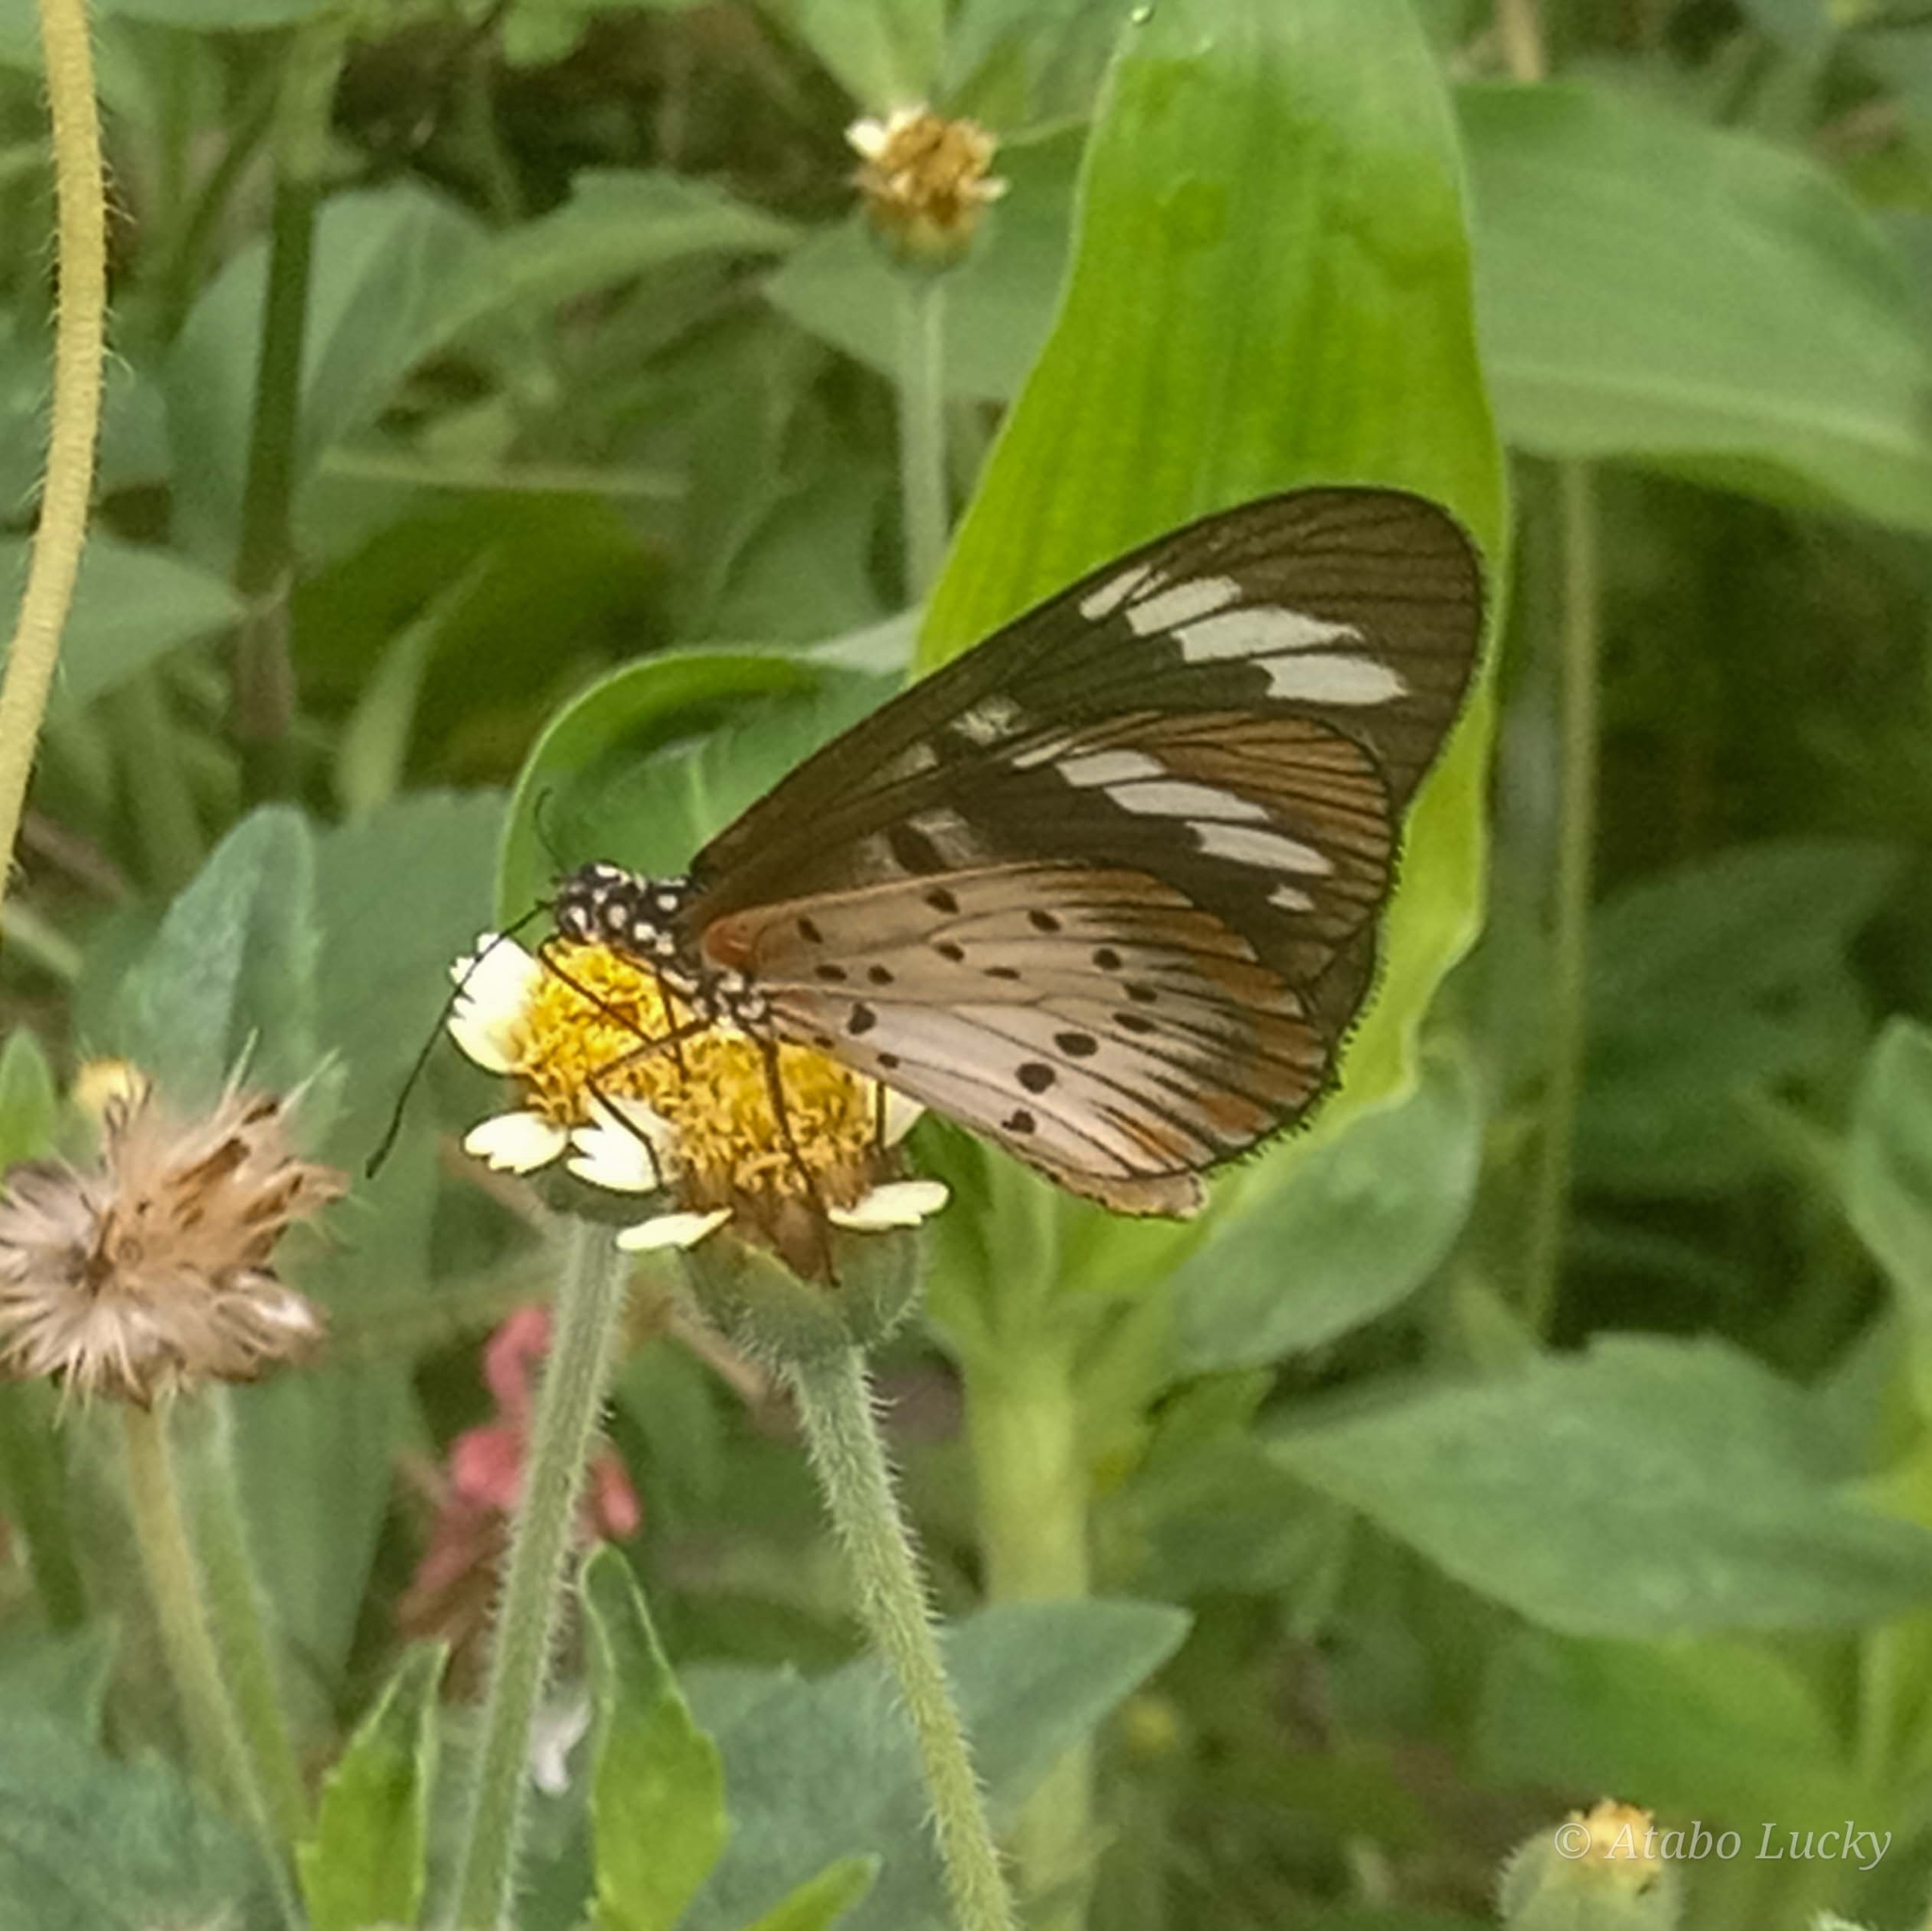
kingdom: Animalia
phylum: Arthropoda
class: Insecta
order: Lepidoptera
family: Nymphalidae
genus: Acraea
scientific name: Acraea Telchinia encedon
